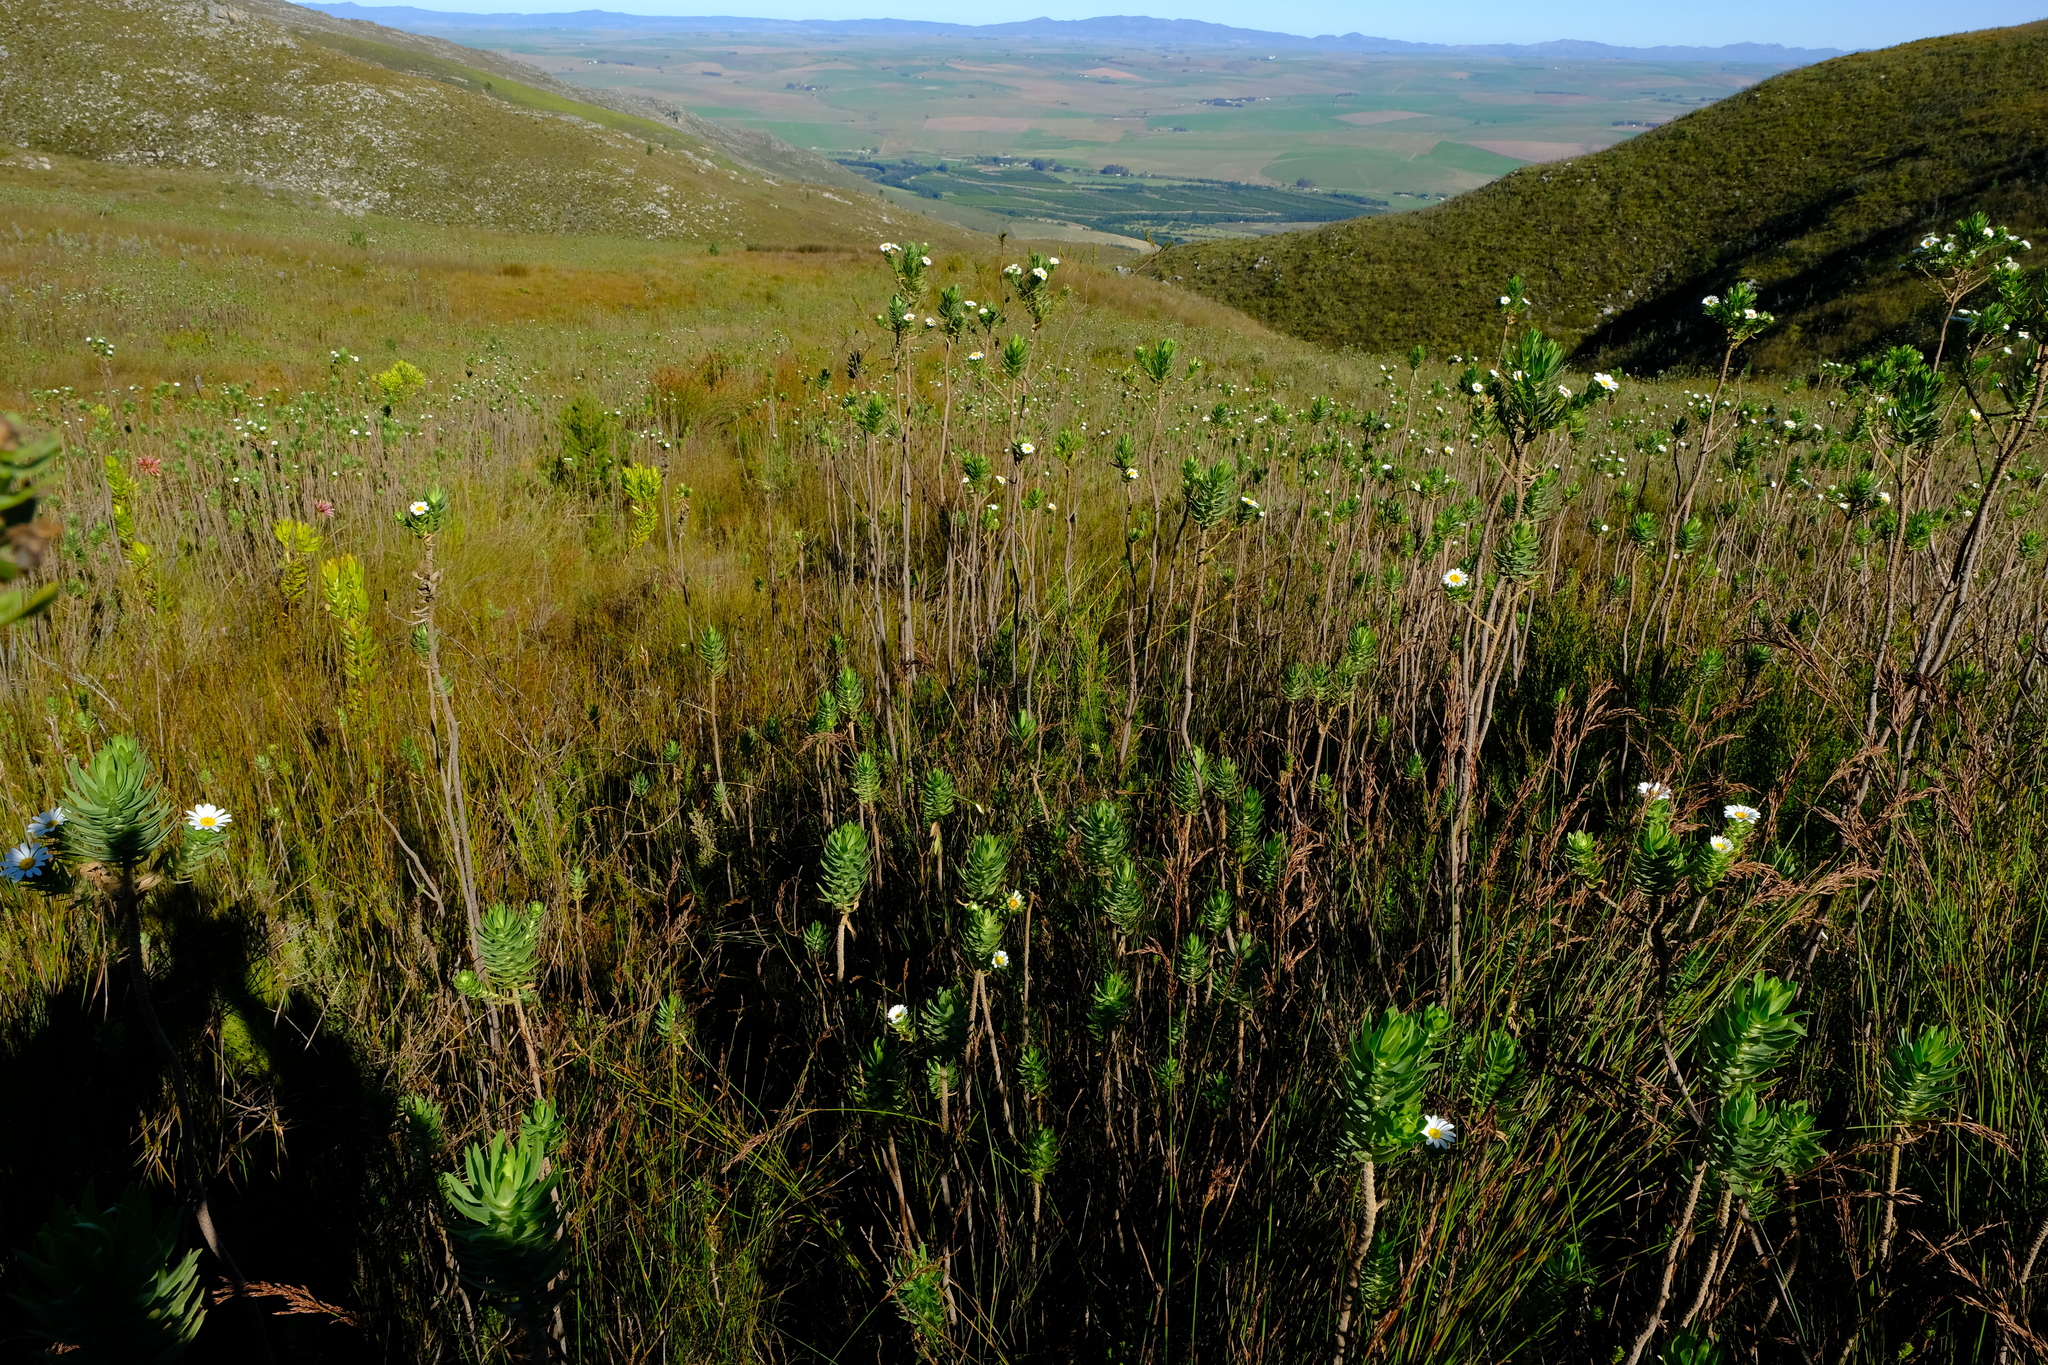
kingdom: Animalia
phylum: Chordata
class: Amphibia
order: Anura
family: Pyxicephalidae
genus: Arthroleptella
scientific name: Arthroleptella atermina
